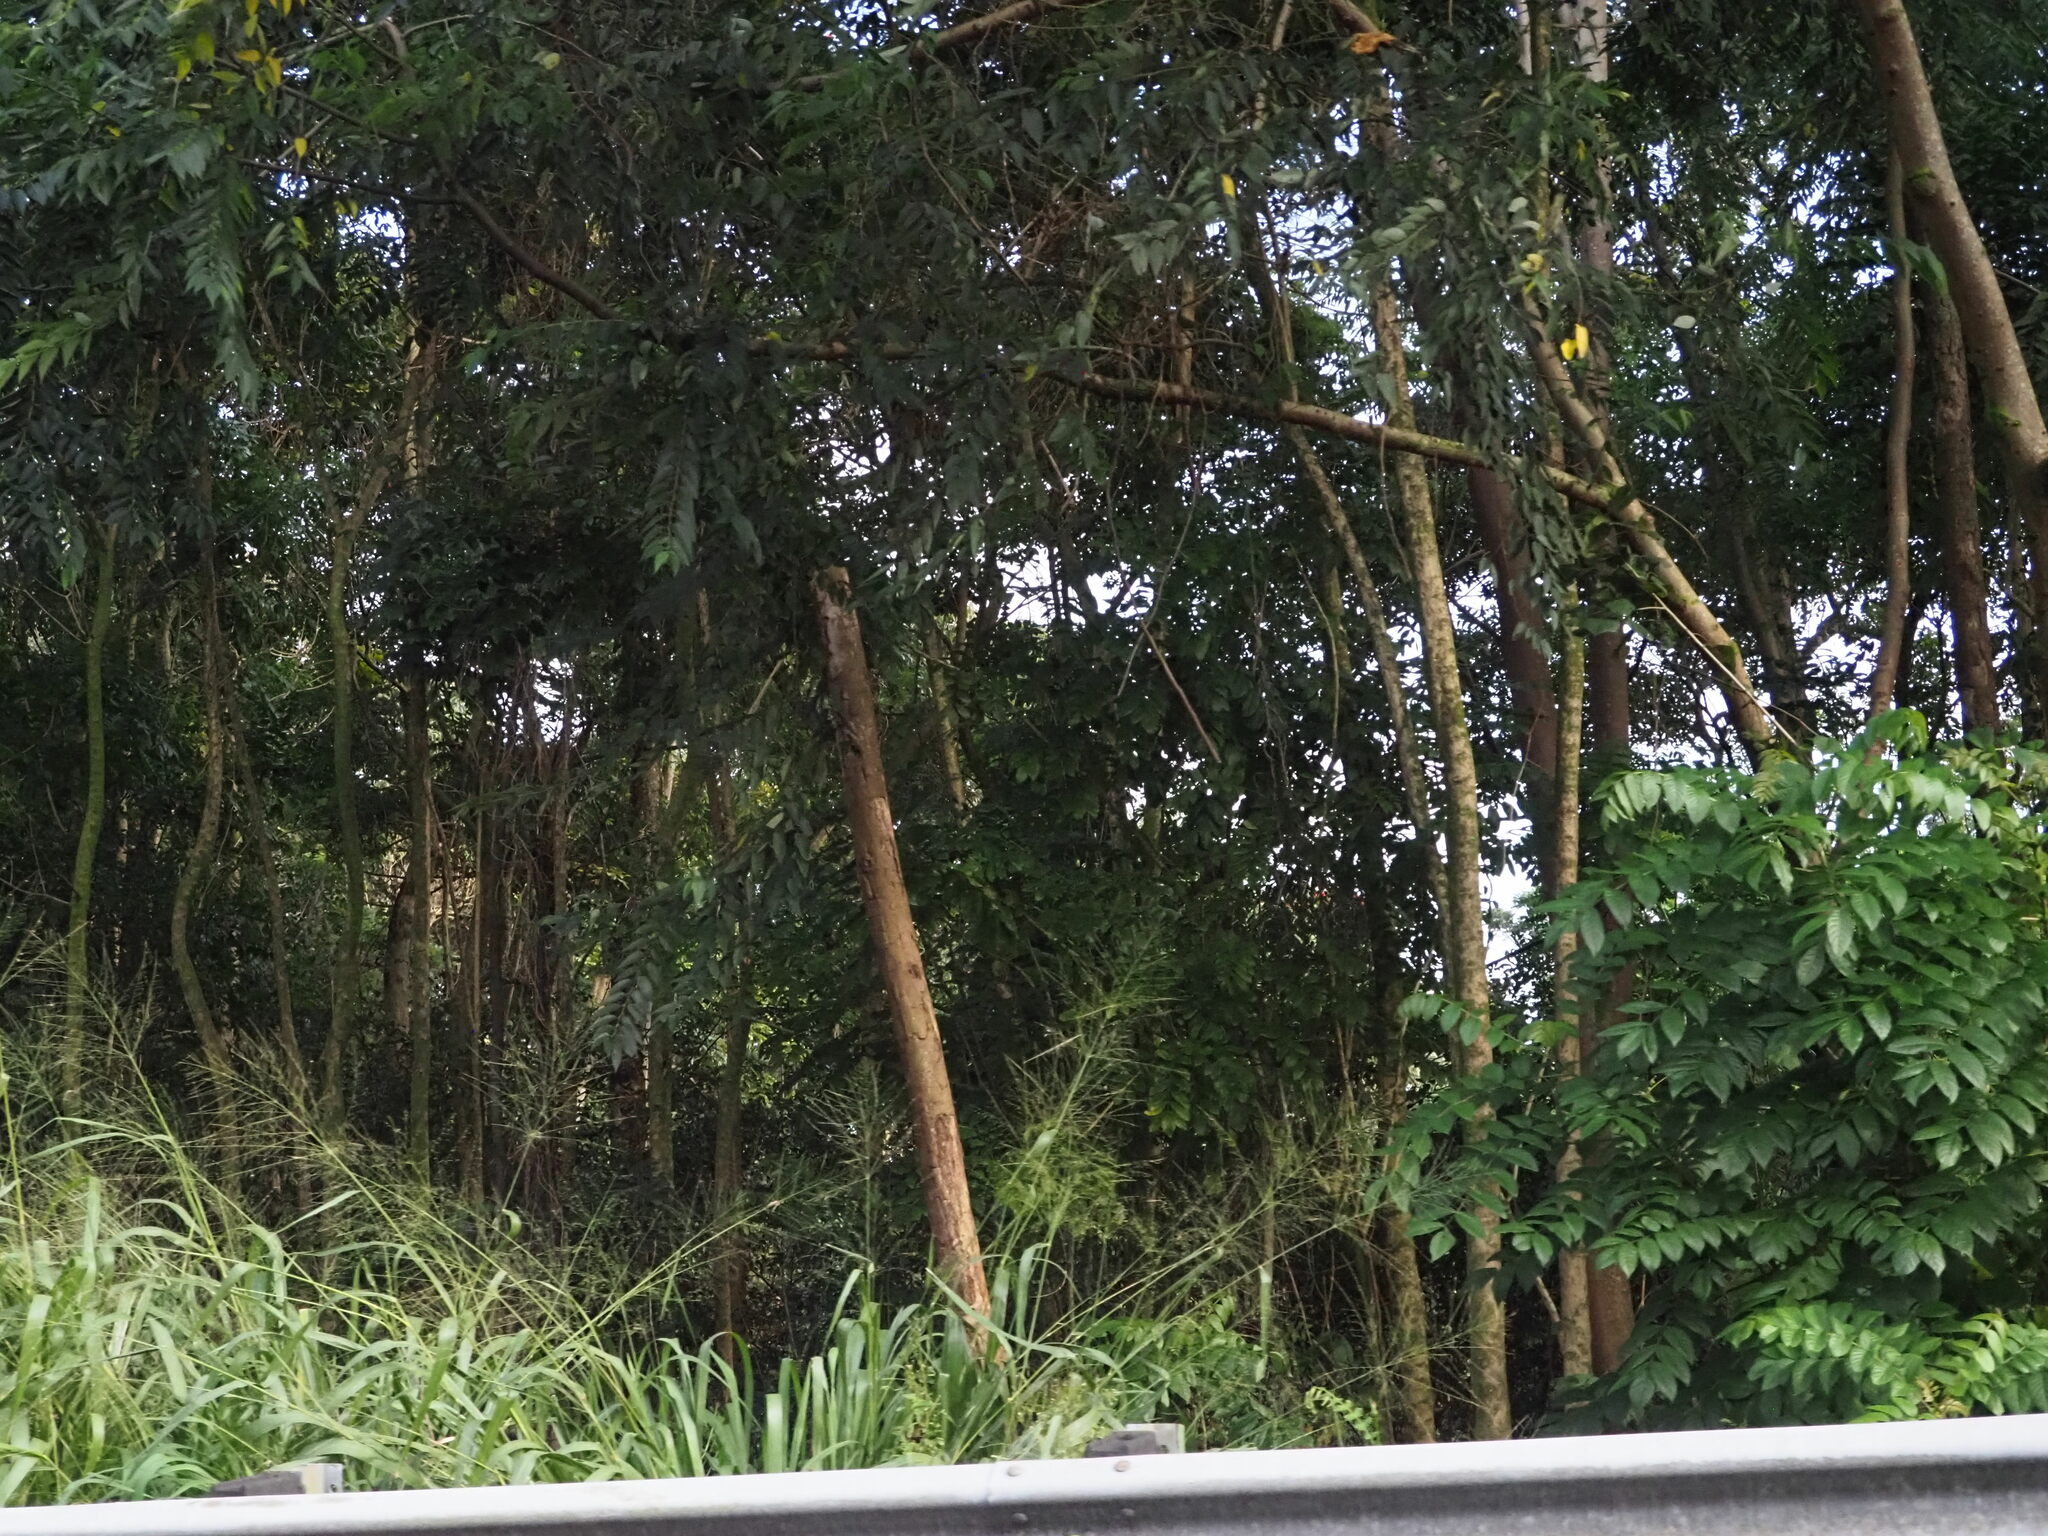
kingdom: Plantae
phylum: Tracheophyta
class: Liliopsida
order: Poales
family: Poaceae
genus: Megathyrsus
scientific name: Megathyrsus maximus
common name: Guineagrass
